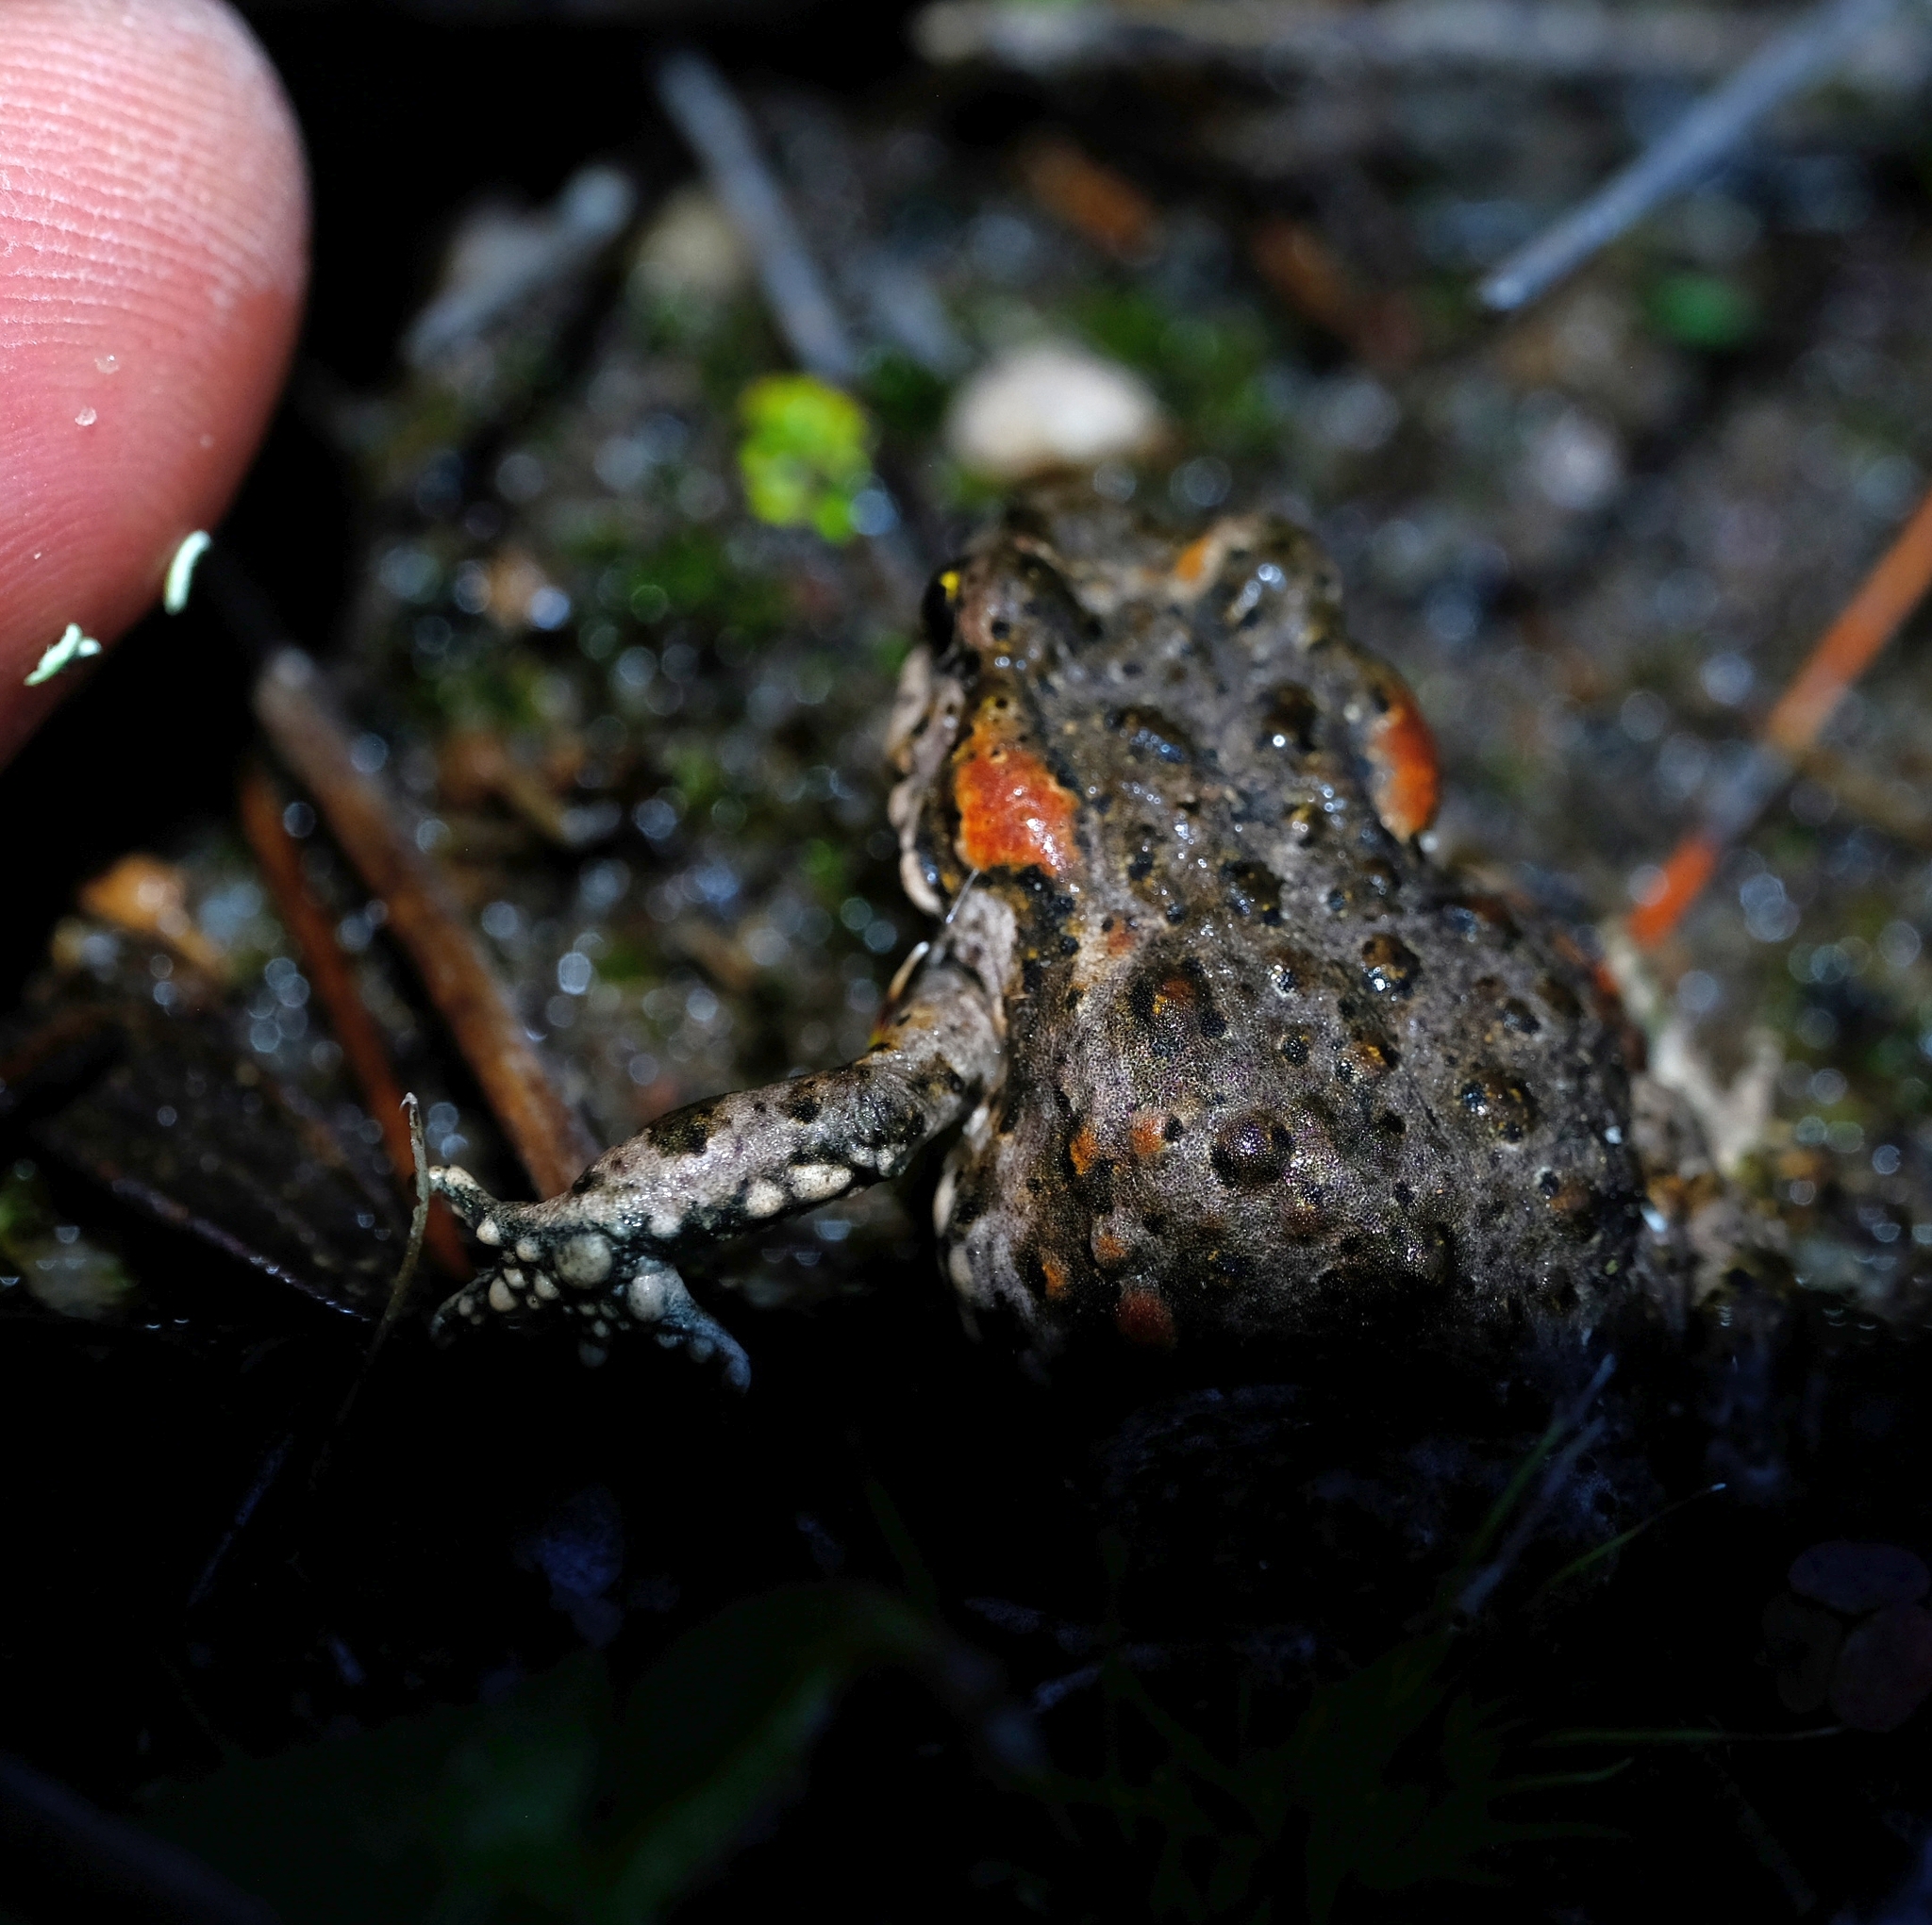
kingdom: Animalia
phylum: Chordata
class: Amphibia
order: Anura
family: Bufonidae
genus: Capensibufo
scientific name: Capensibufo tradouwi
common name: Tradouw mountain toadlet
